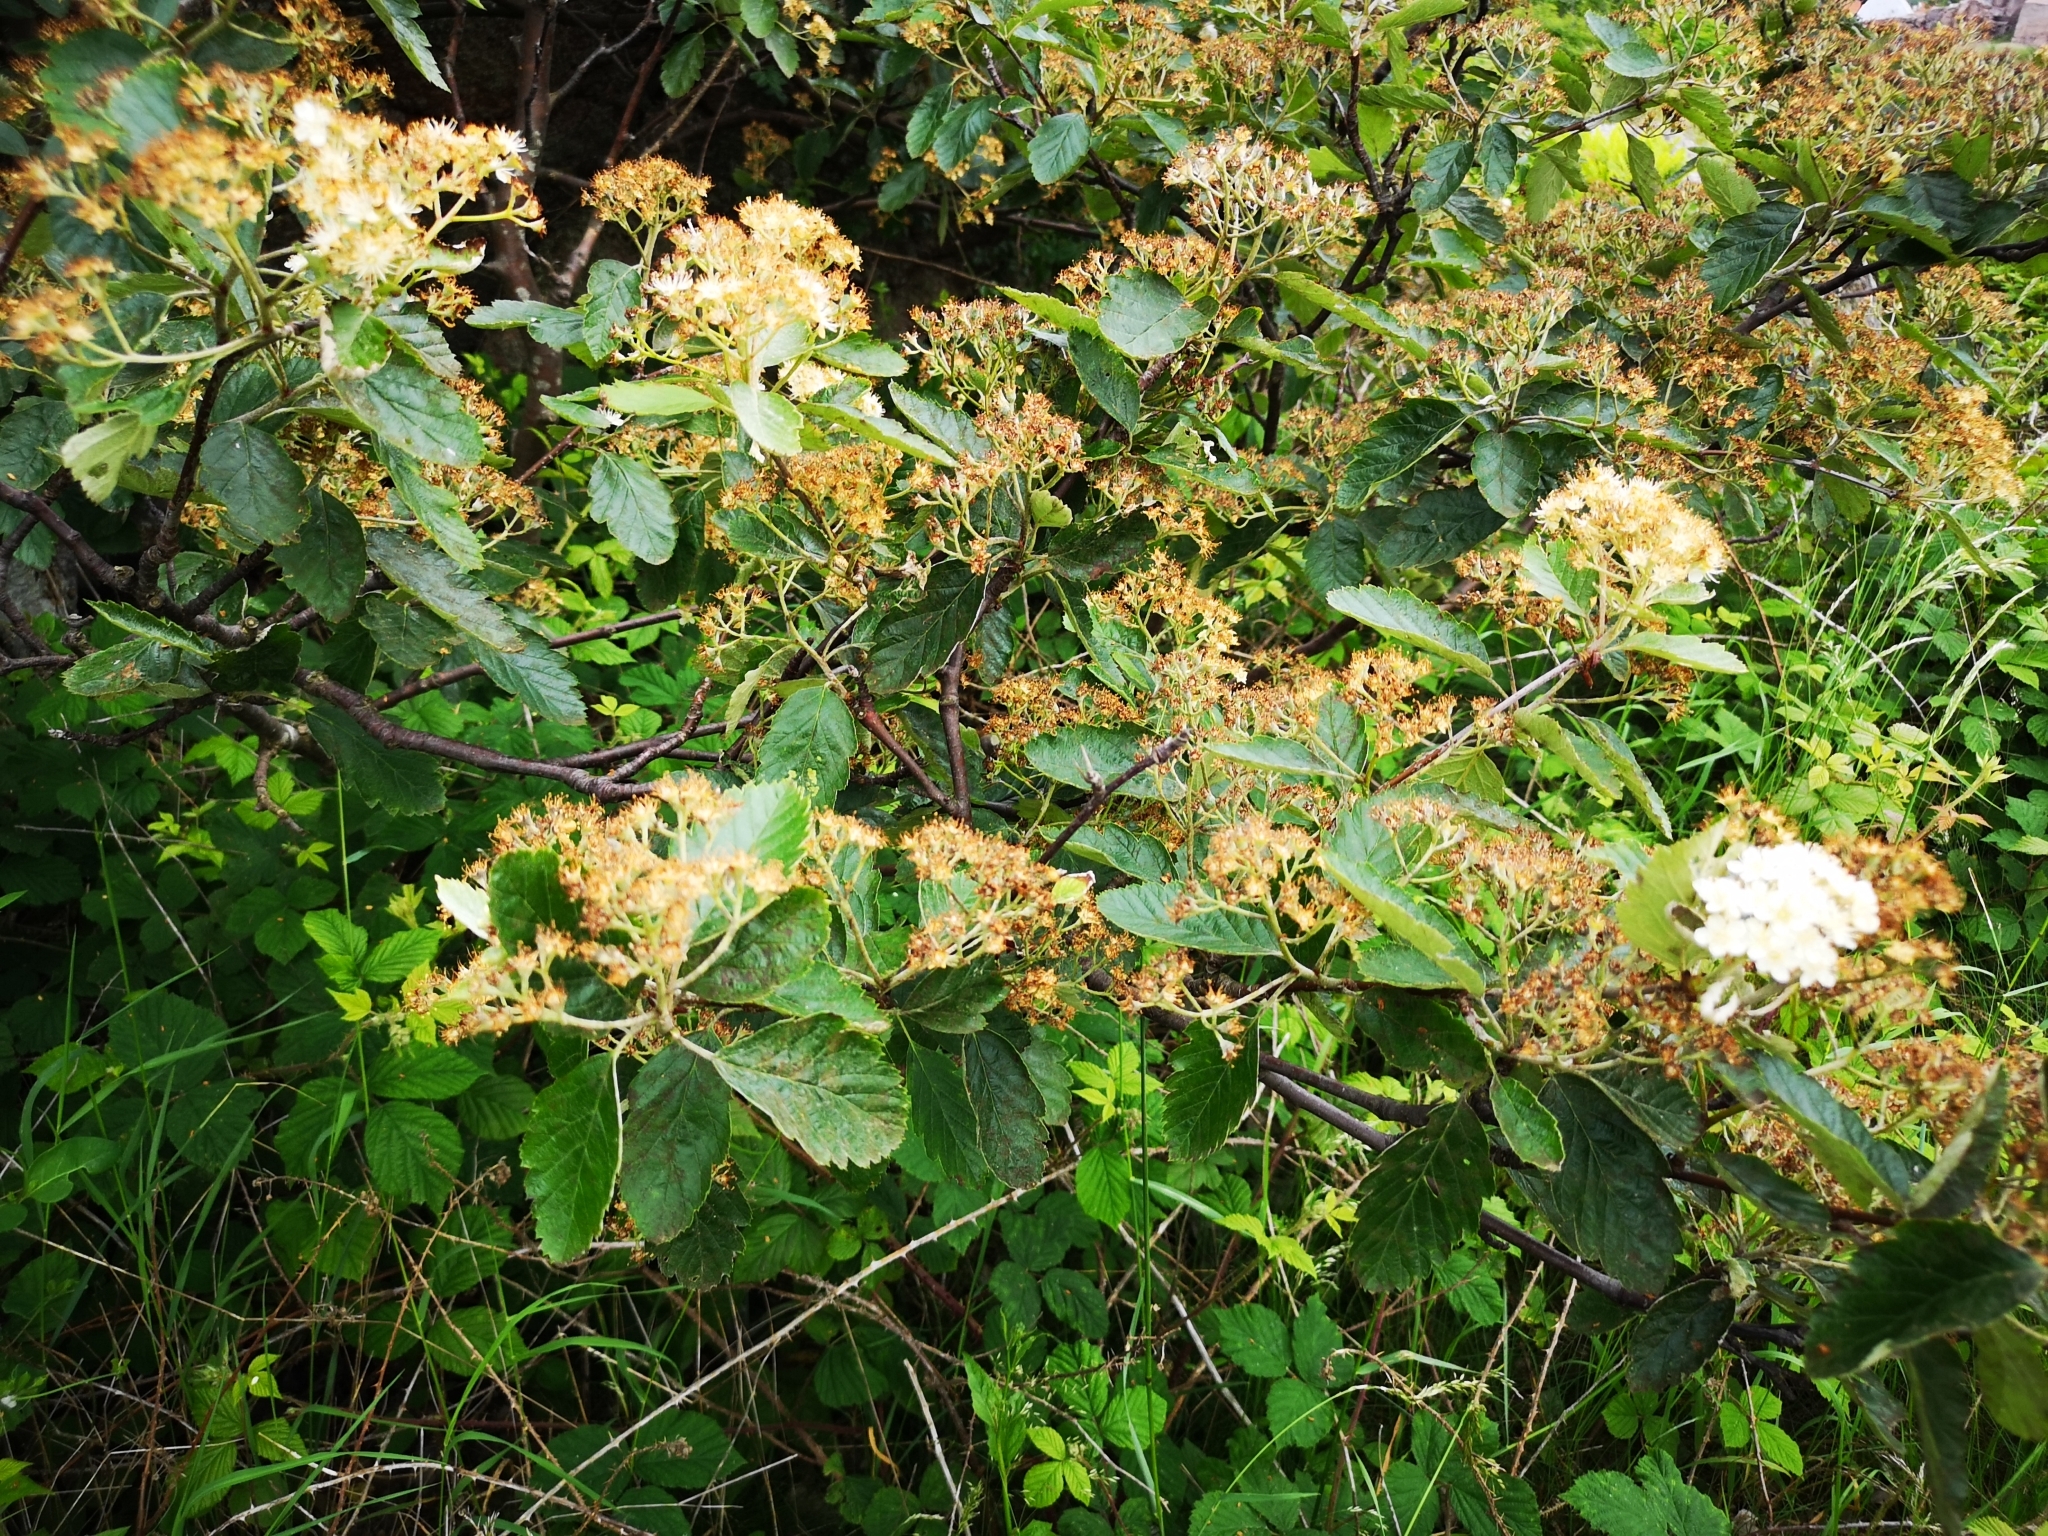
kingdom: Plantae
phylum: Tracheophyta
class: Magnoliopsida
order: Rosales
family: Rosaceae
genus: Scandosorbus
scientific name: Scandosorbus intermedia
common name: Swedish whitebeam
